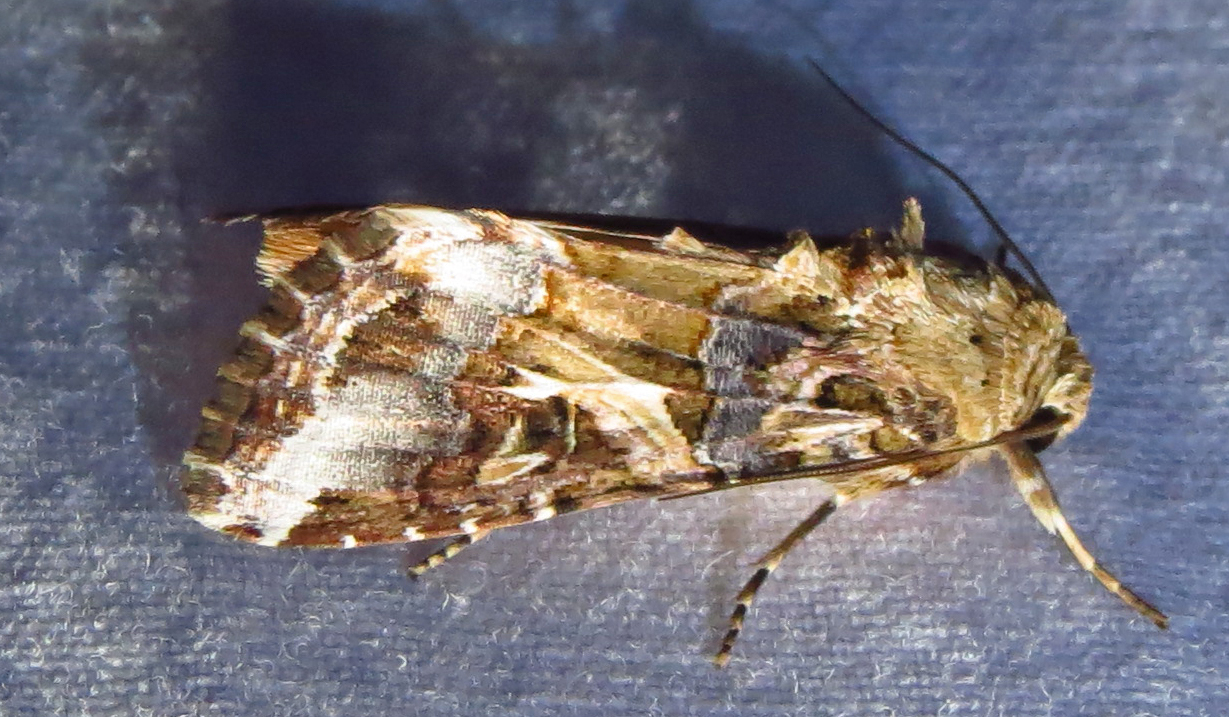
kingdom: Animalia
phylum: Arthropoda
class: Insecta
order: Lepidoptera
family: Noctuidae
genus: Spodoptera
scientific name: Spodoptera ornithogalli
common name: Yellow-striped armyworm
